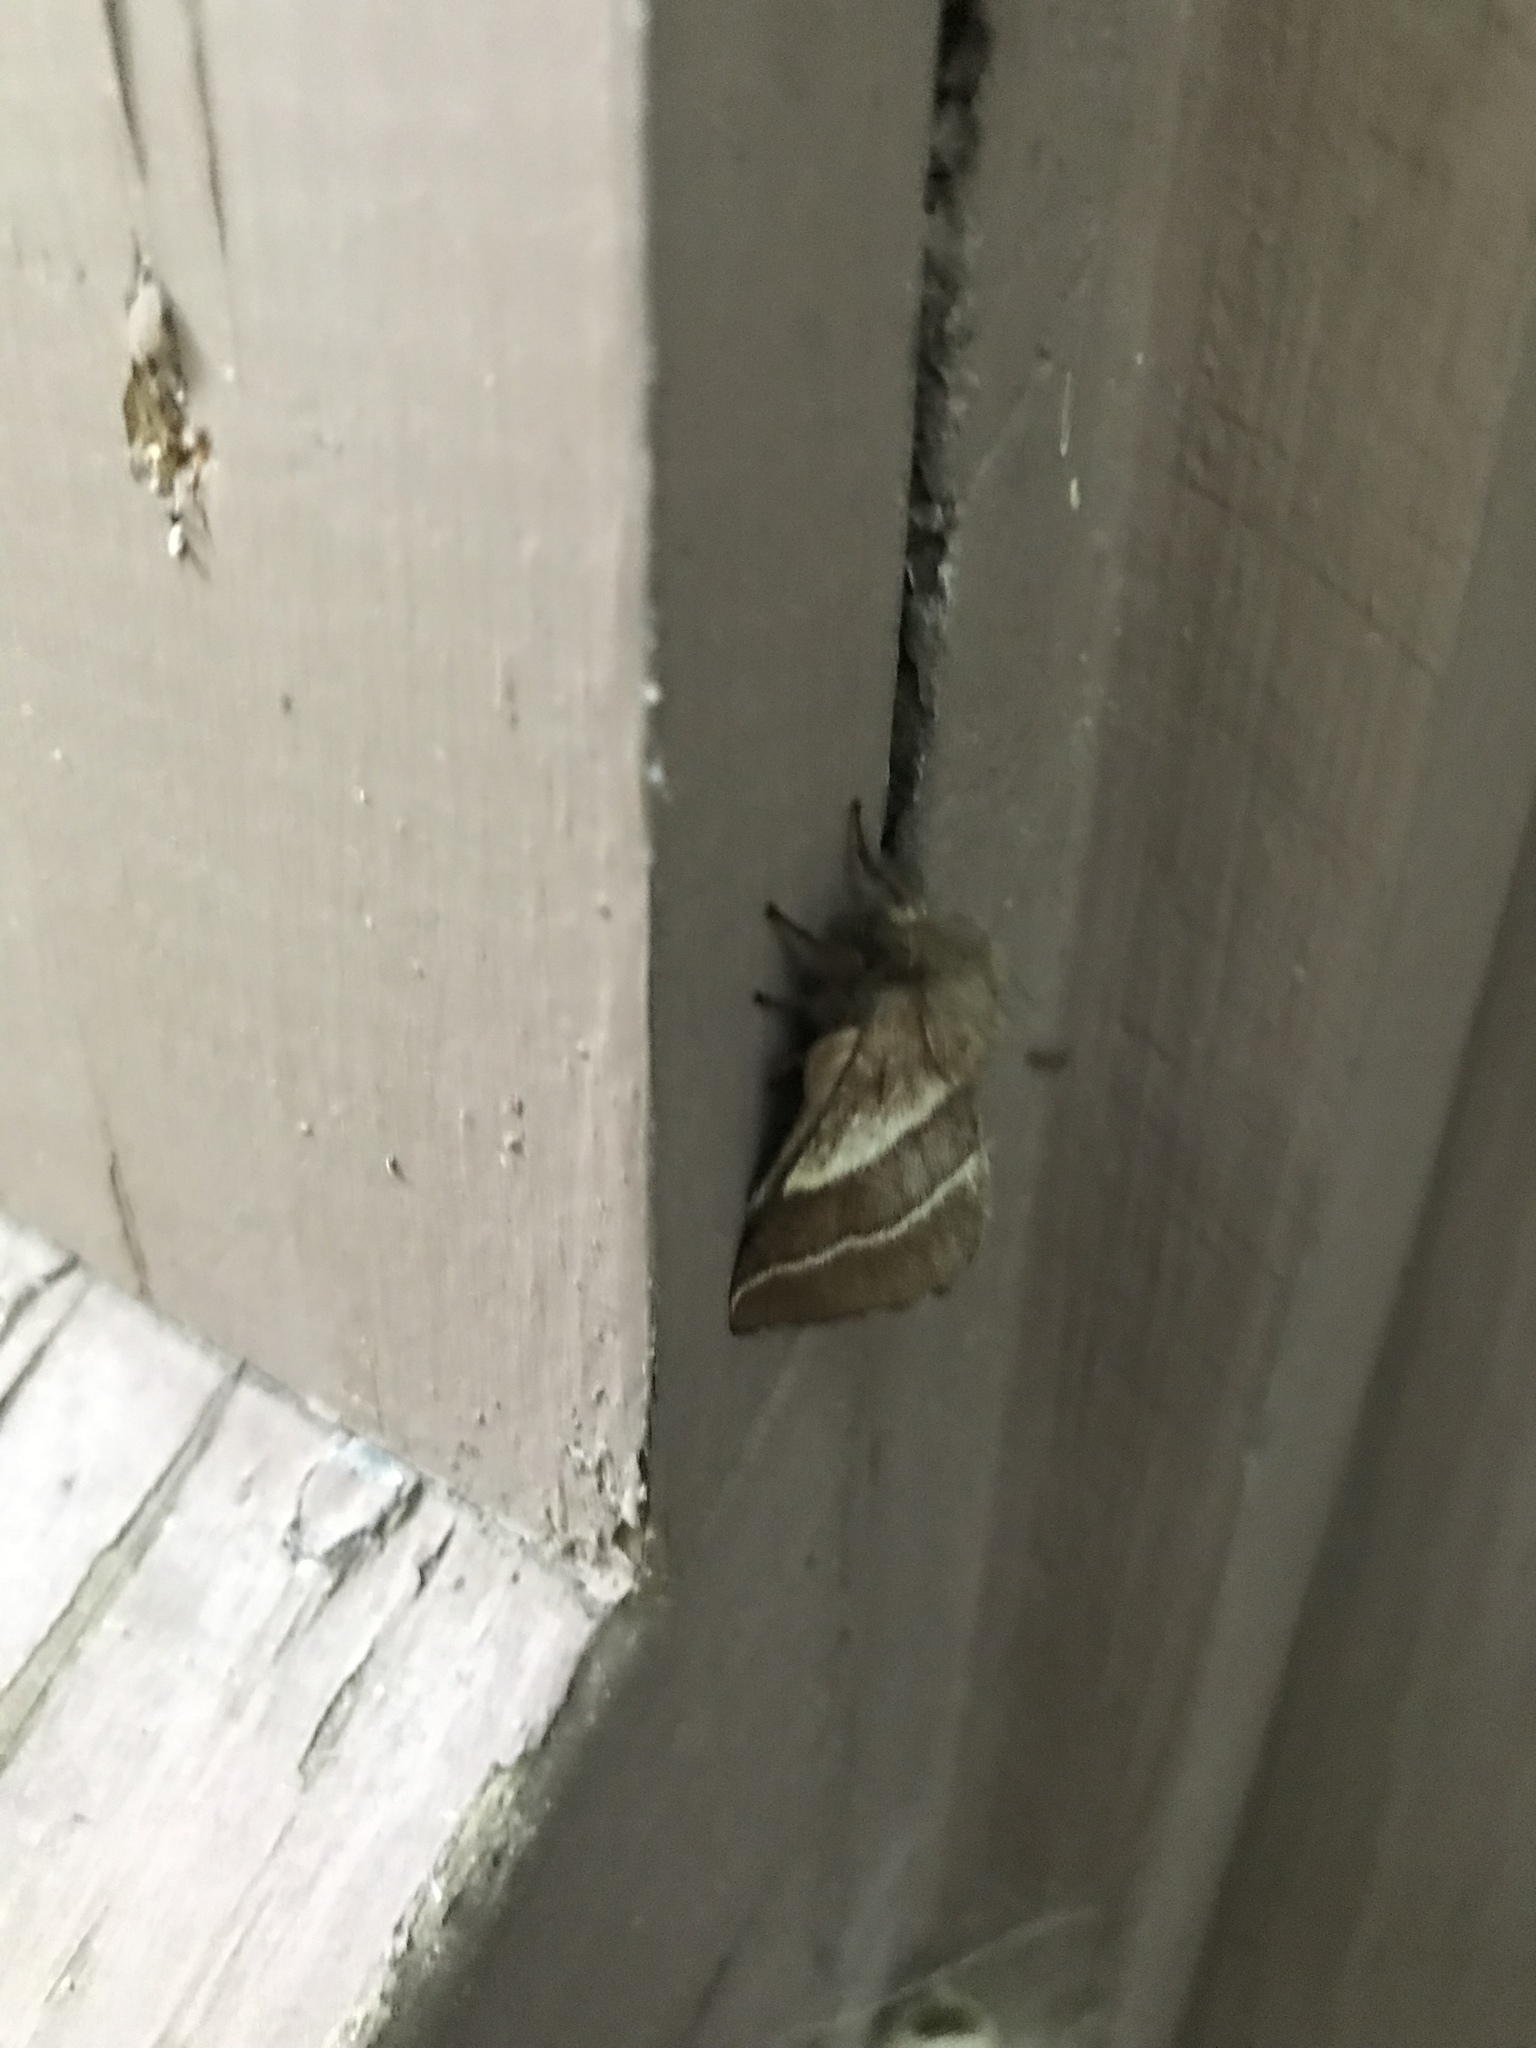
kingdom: Animalia
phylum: Arthropoda
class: Insecta
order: Lepidoptera
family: Lasiocampidae
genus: Malacosoma
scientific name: Malacosoma americana
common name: Eastern tent caterpillar moth
